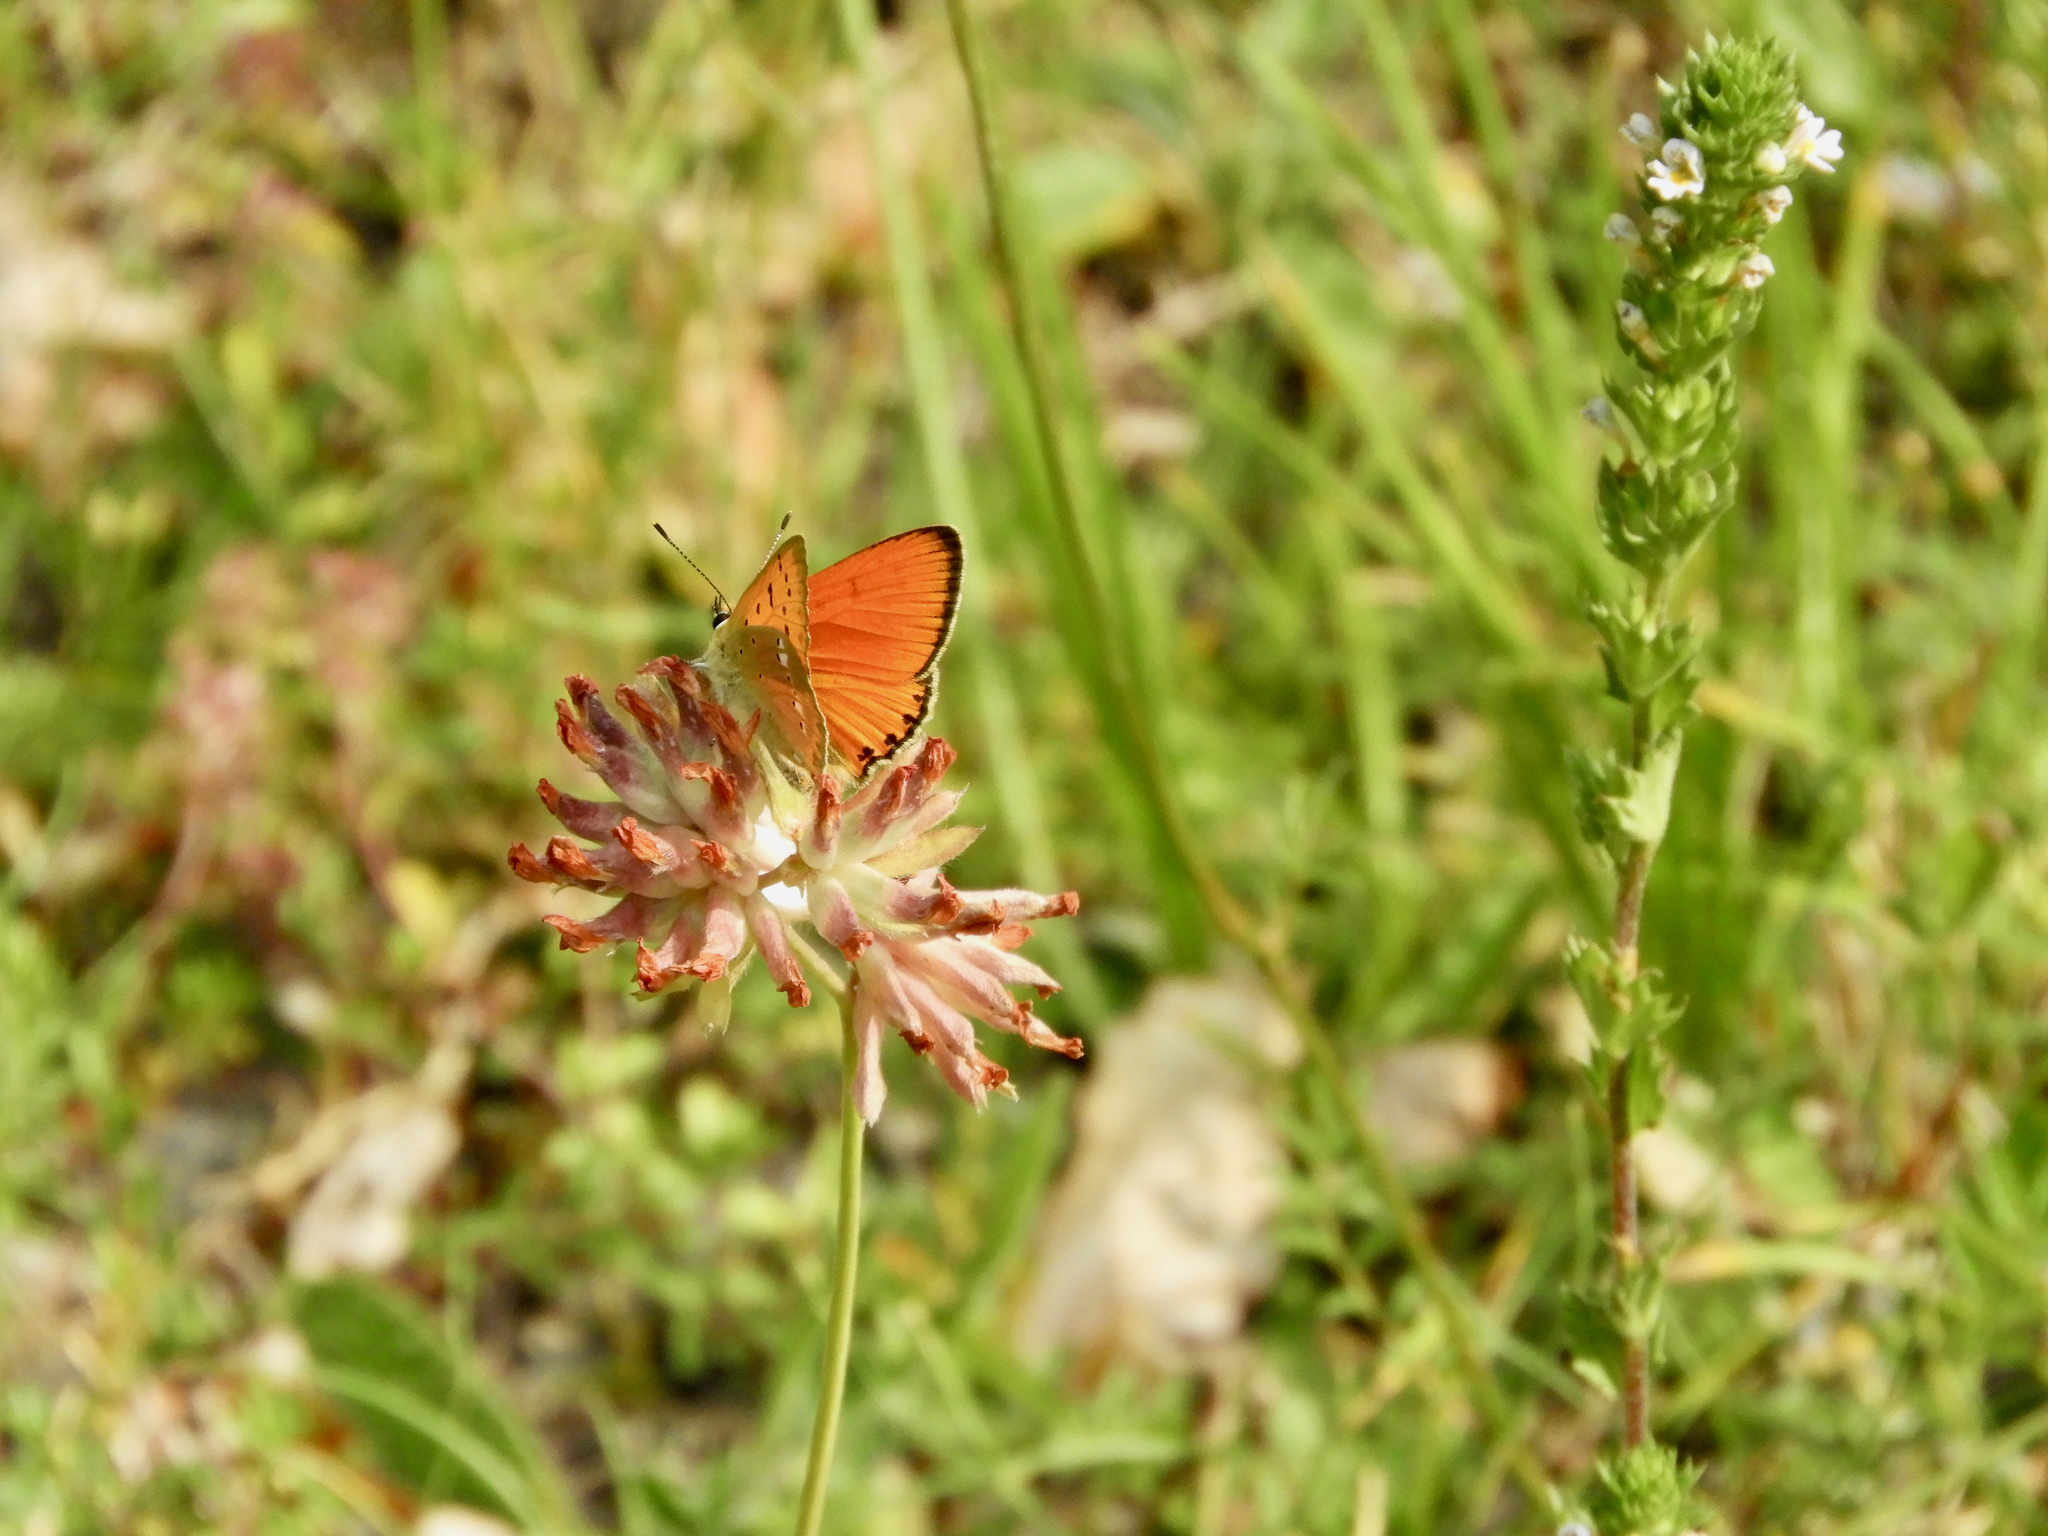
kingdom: Animalia
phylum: Arthropoda
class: Insecta
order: Lepidoptera
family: Lycaenidae
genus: Lycaena
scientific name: Lycaena virgaureae
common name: Scarce copper
